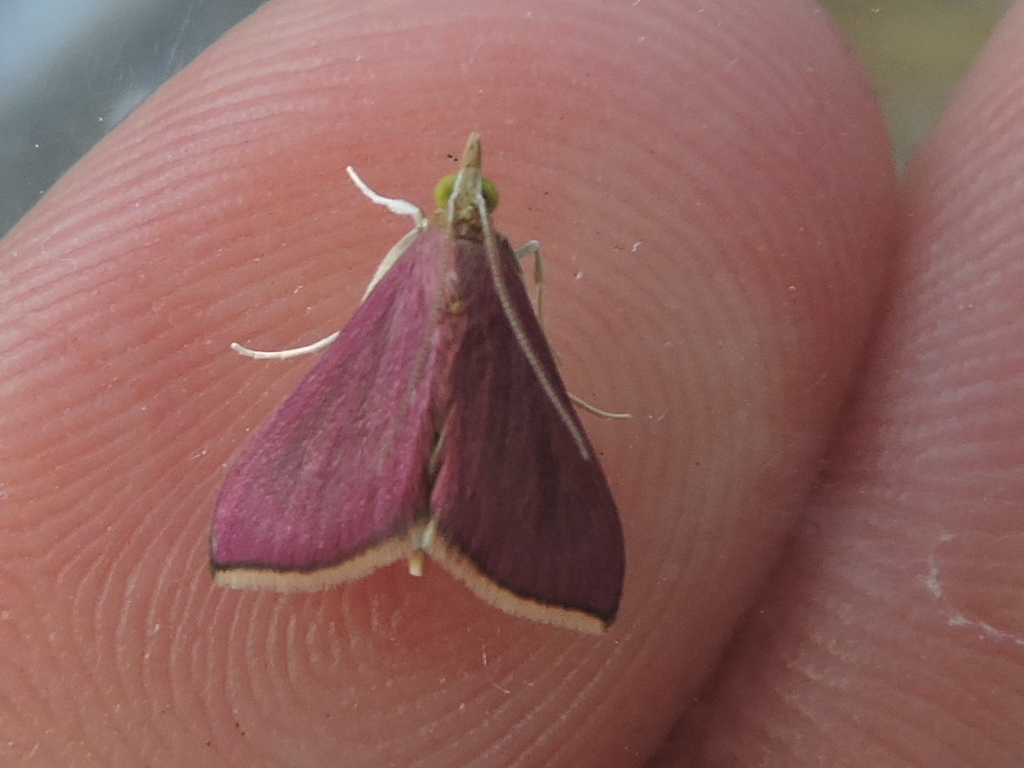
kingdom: Animalia
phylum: Arthropoda
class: Insecta
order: Lepidoptera
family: Crambidae
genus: Pyrausta
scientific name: Pyrausta inornatalis
